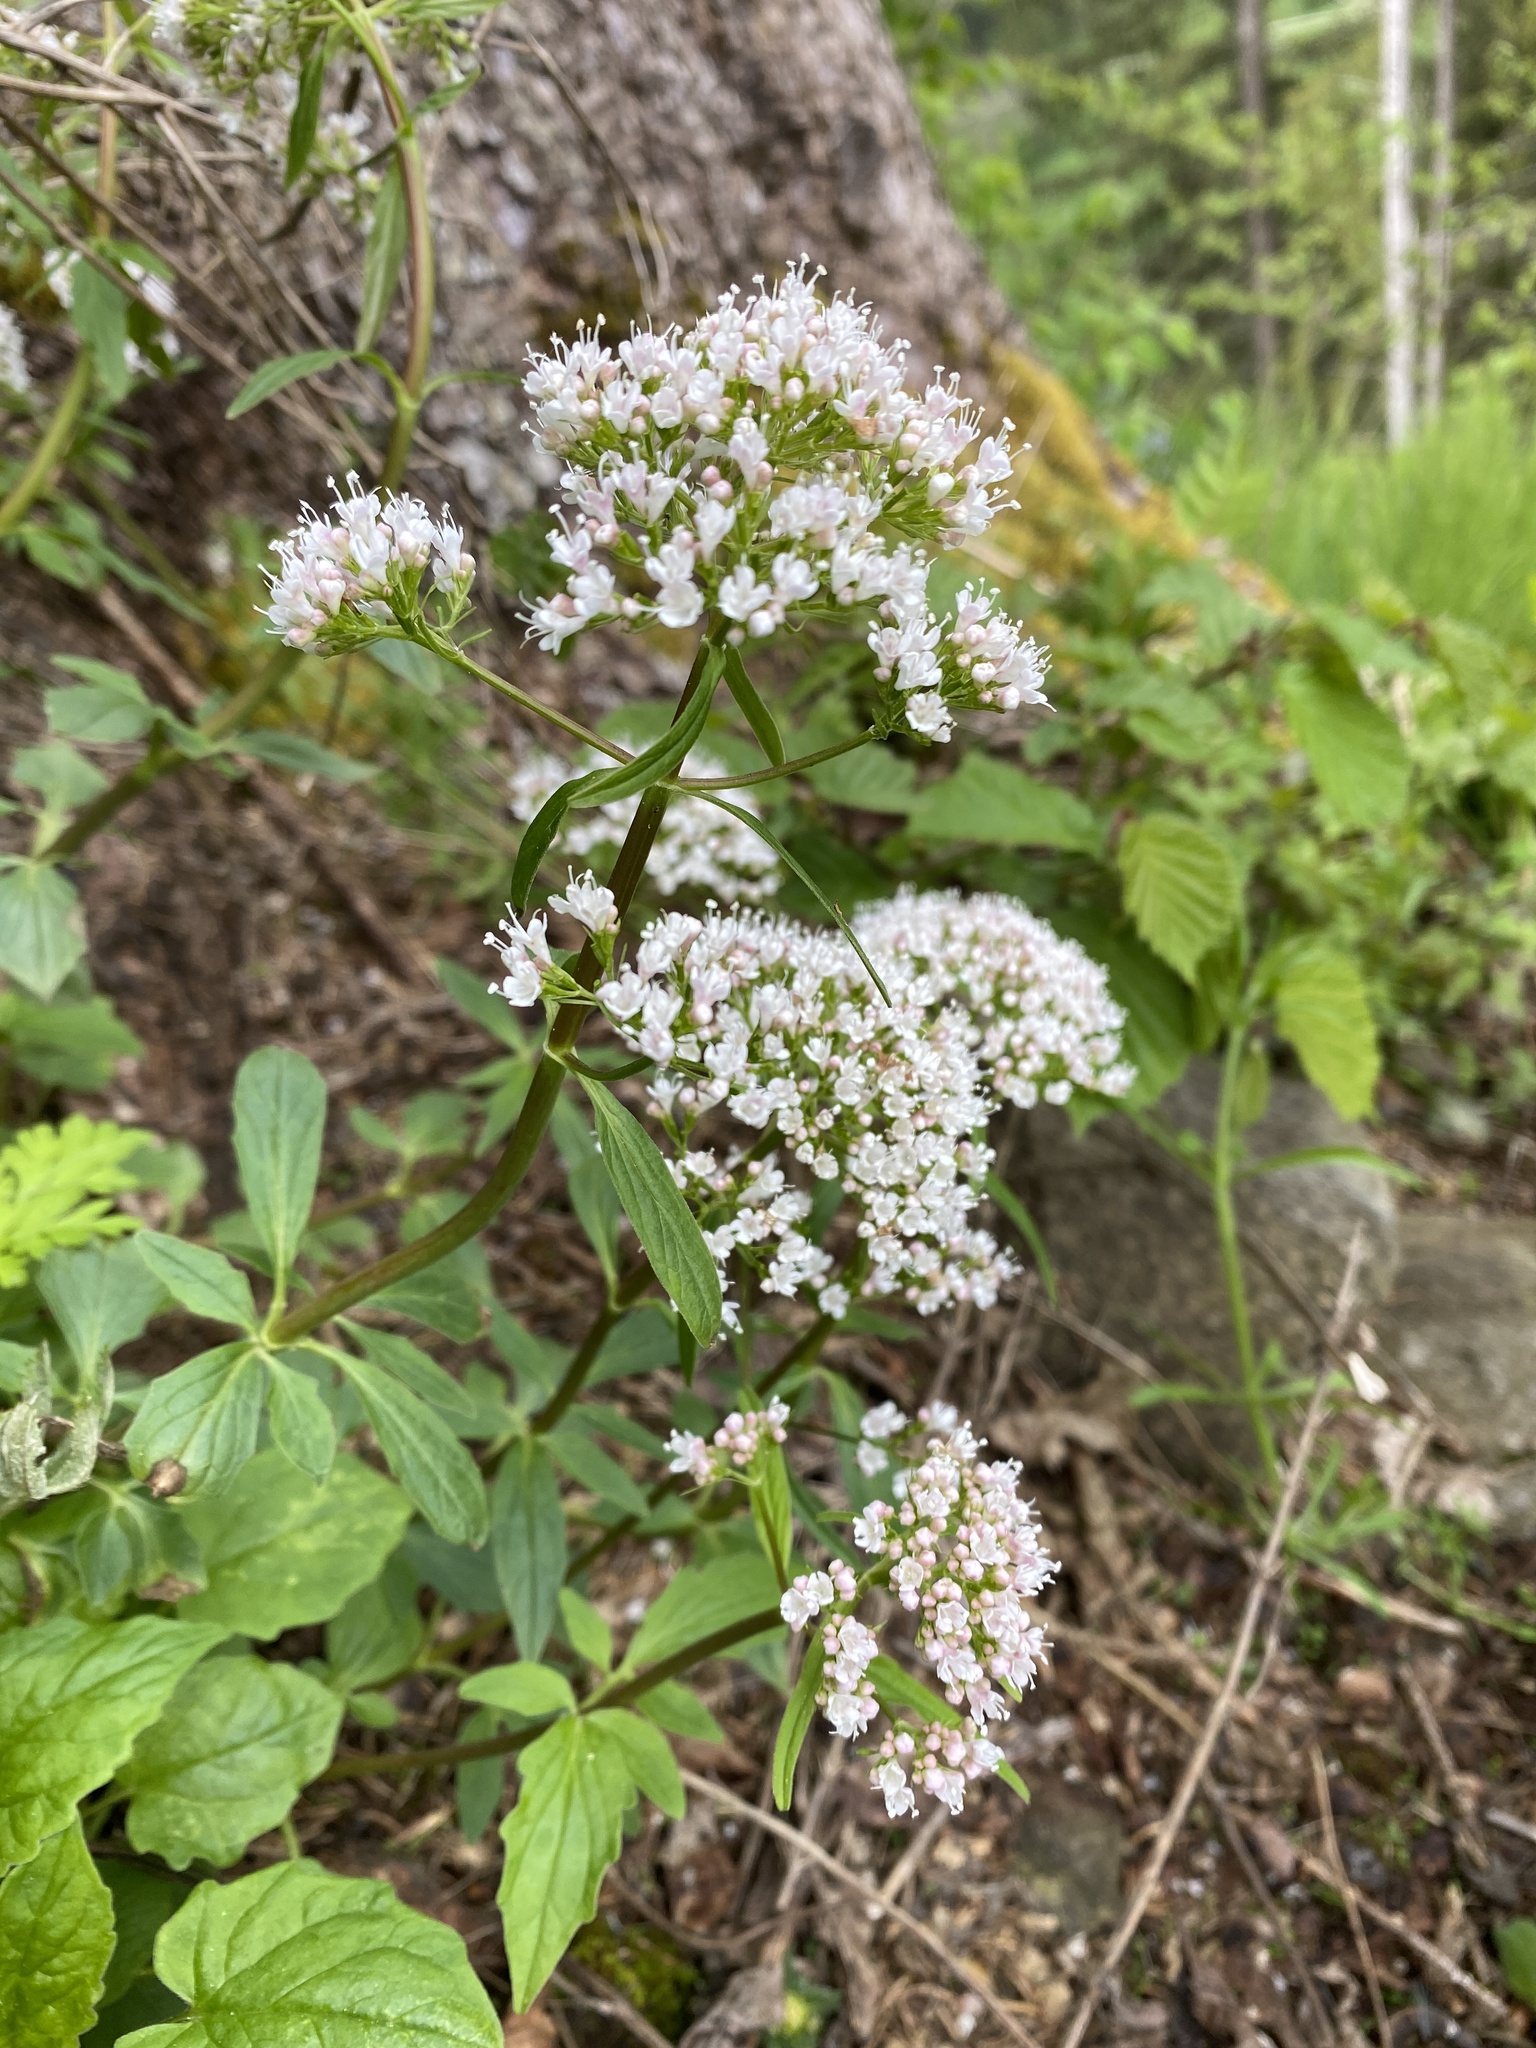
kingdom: Plantae
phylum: Tracheophyta
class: Magnoliopsida
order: Dipsacales
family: Caprifoliaceae
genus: Valeriana
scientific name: Valeriana tripteris
